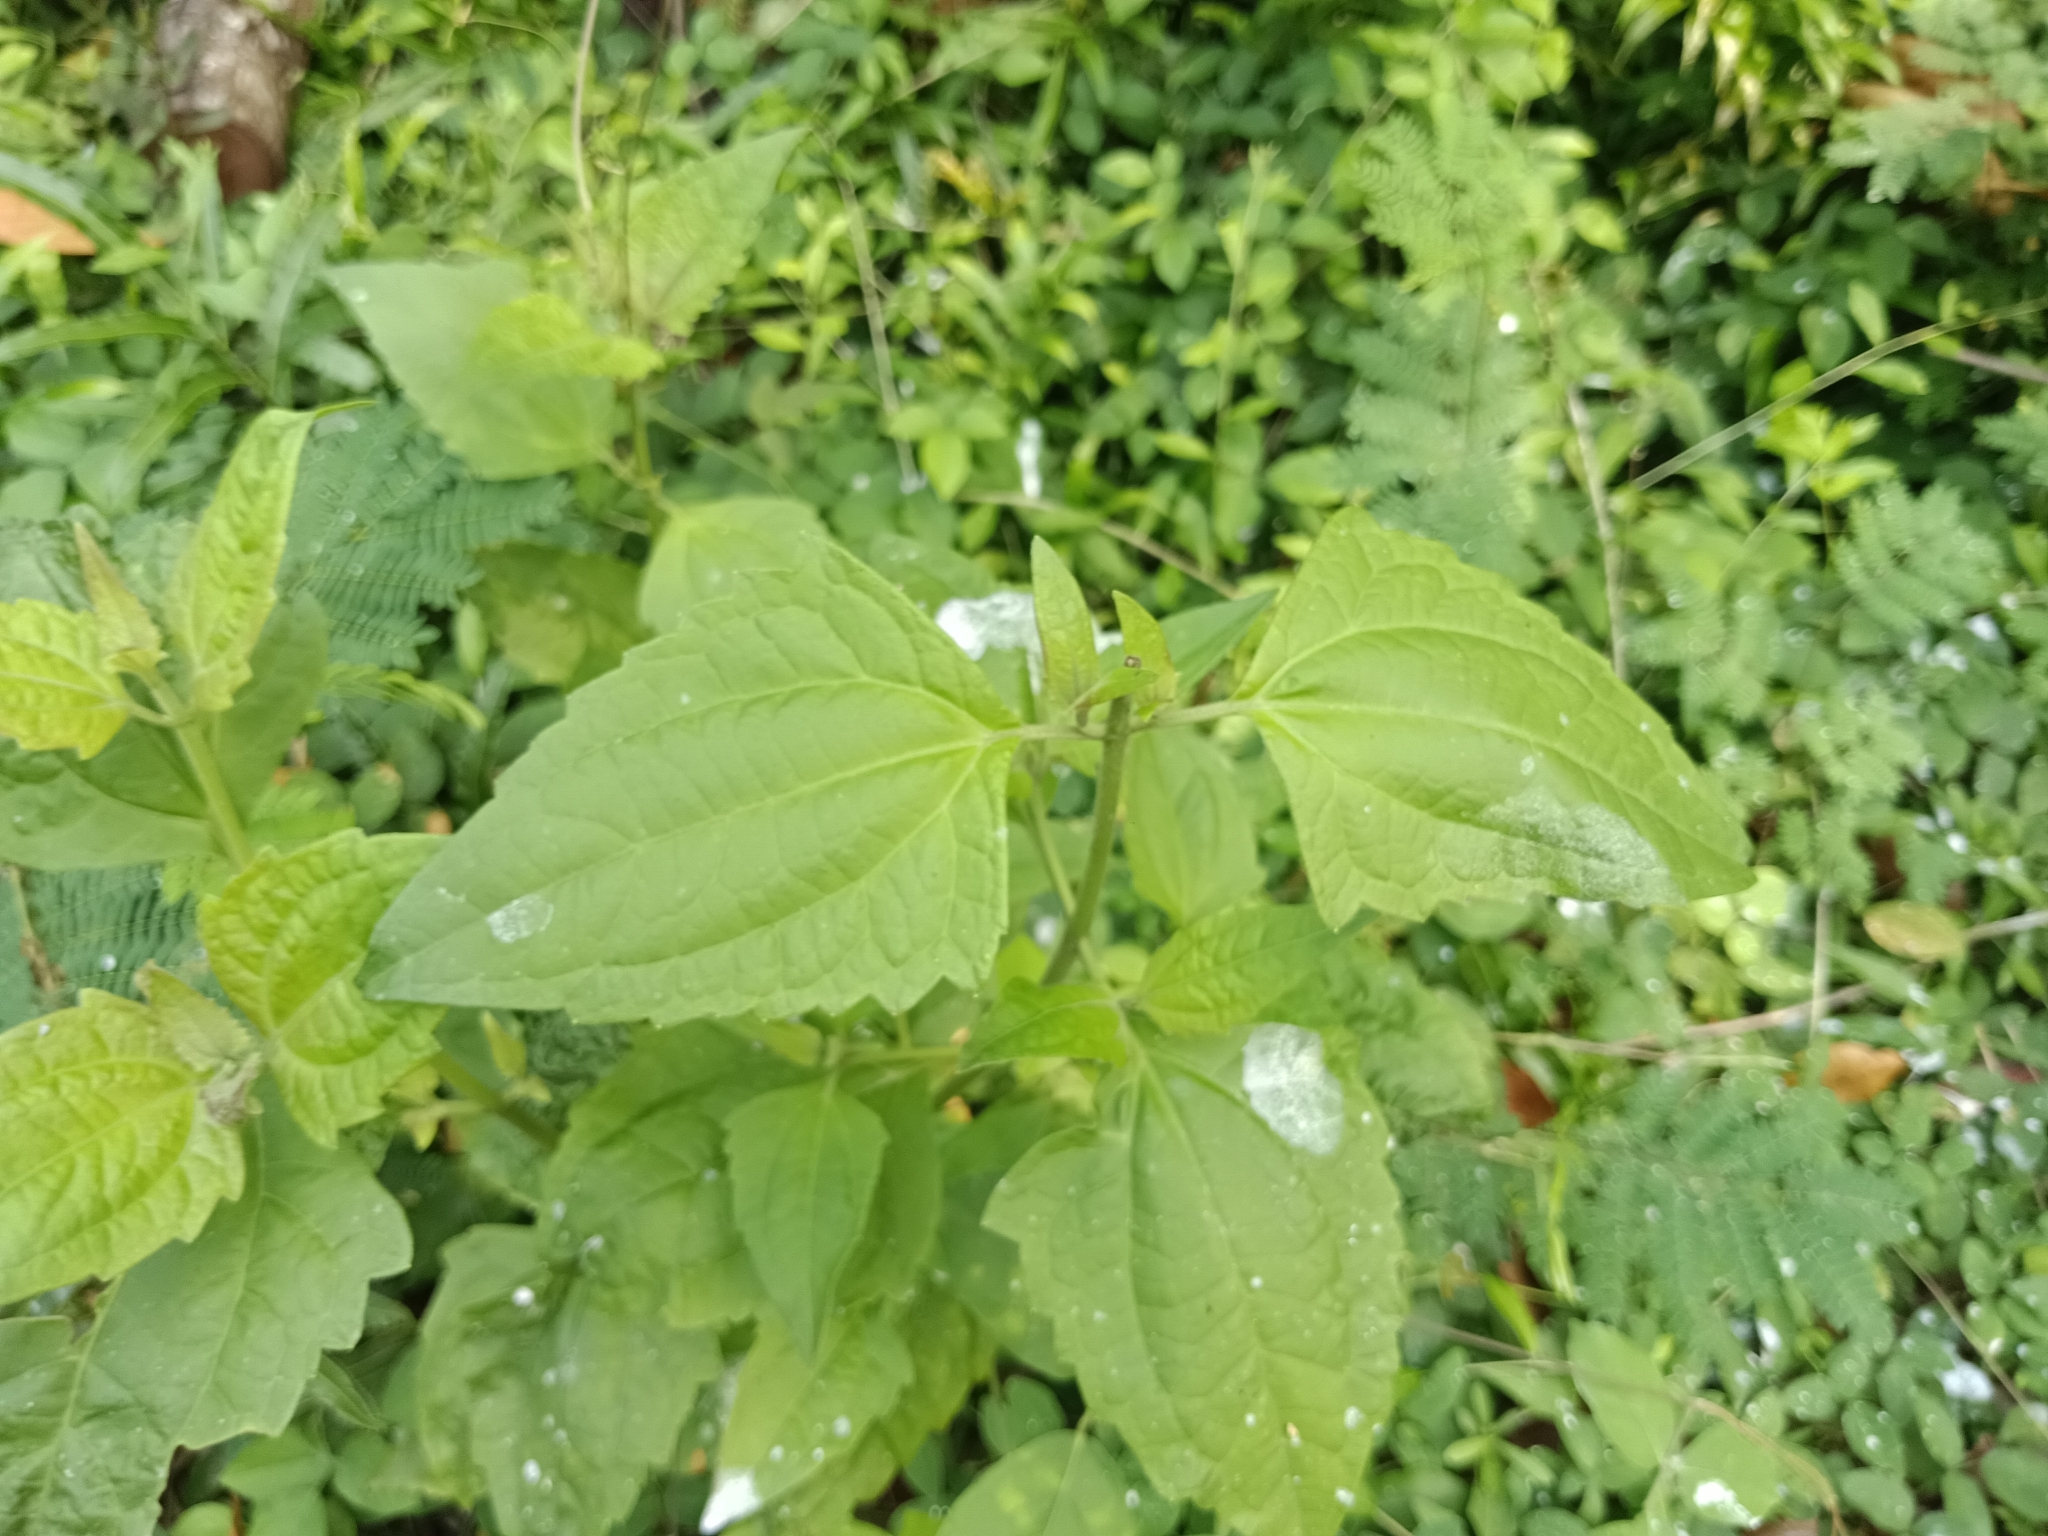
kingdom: Plantae
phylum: Tracheophyta
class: Magnoliopsida
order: Asterales
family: Asteraceae
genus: Chromolaena
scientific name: Chromolaena odorata
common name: Siamweed
